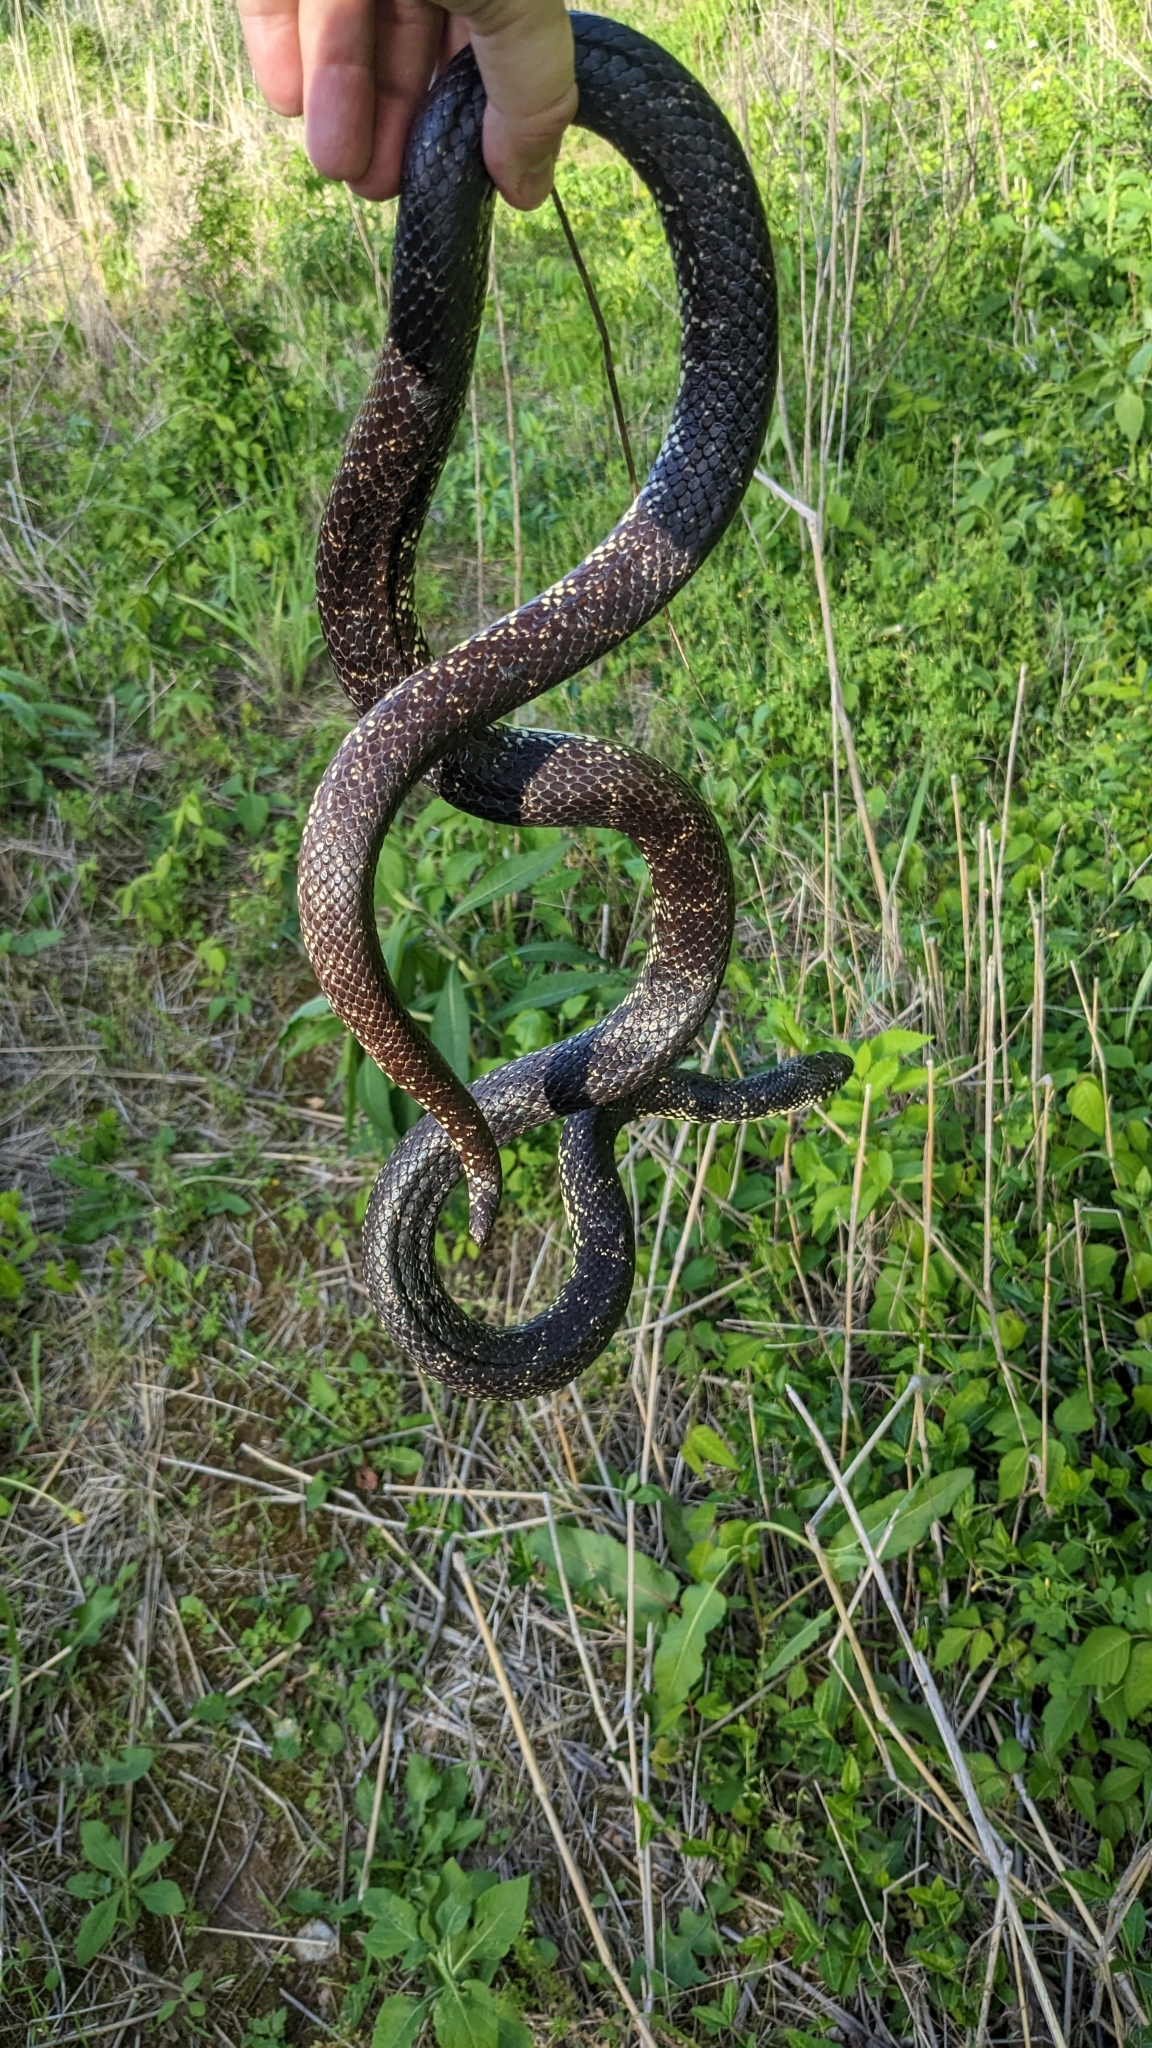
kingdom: Animalia
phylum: Chordata
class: Squamata
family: Colubridae
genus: Lampropeltis
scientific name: Lampropeltis nigra
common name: Black kingsnake
